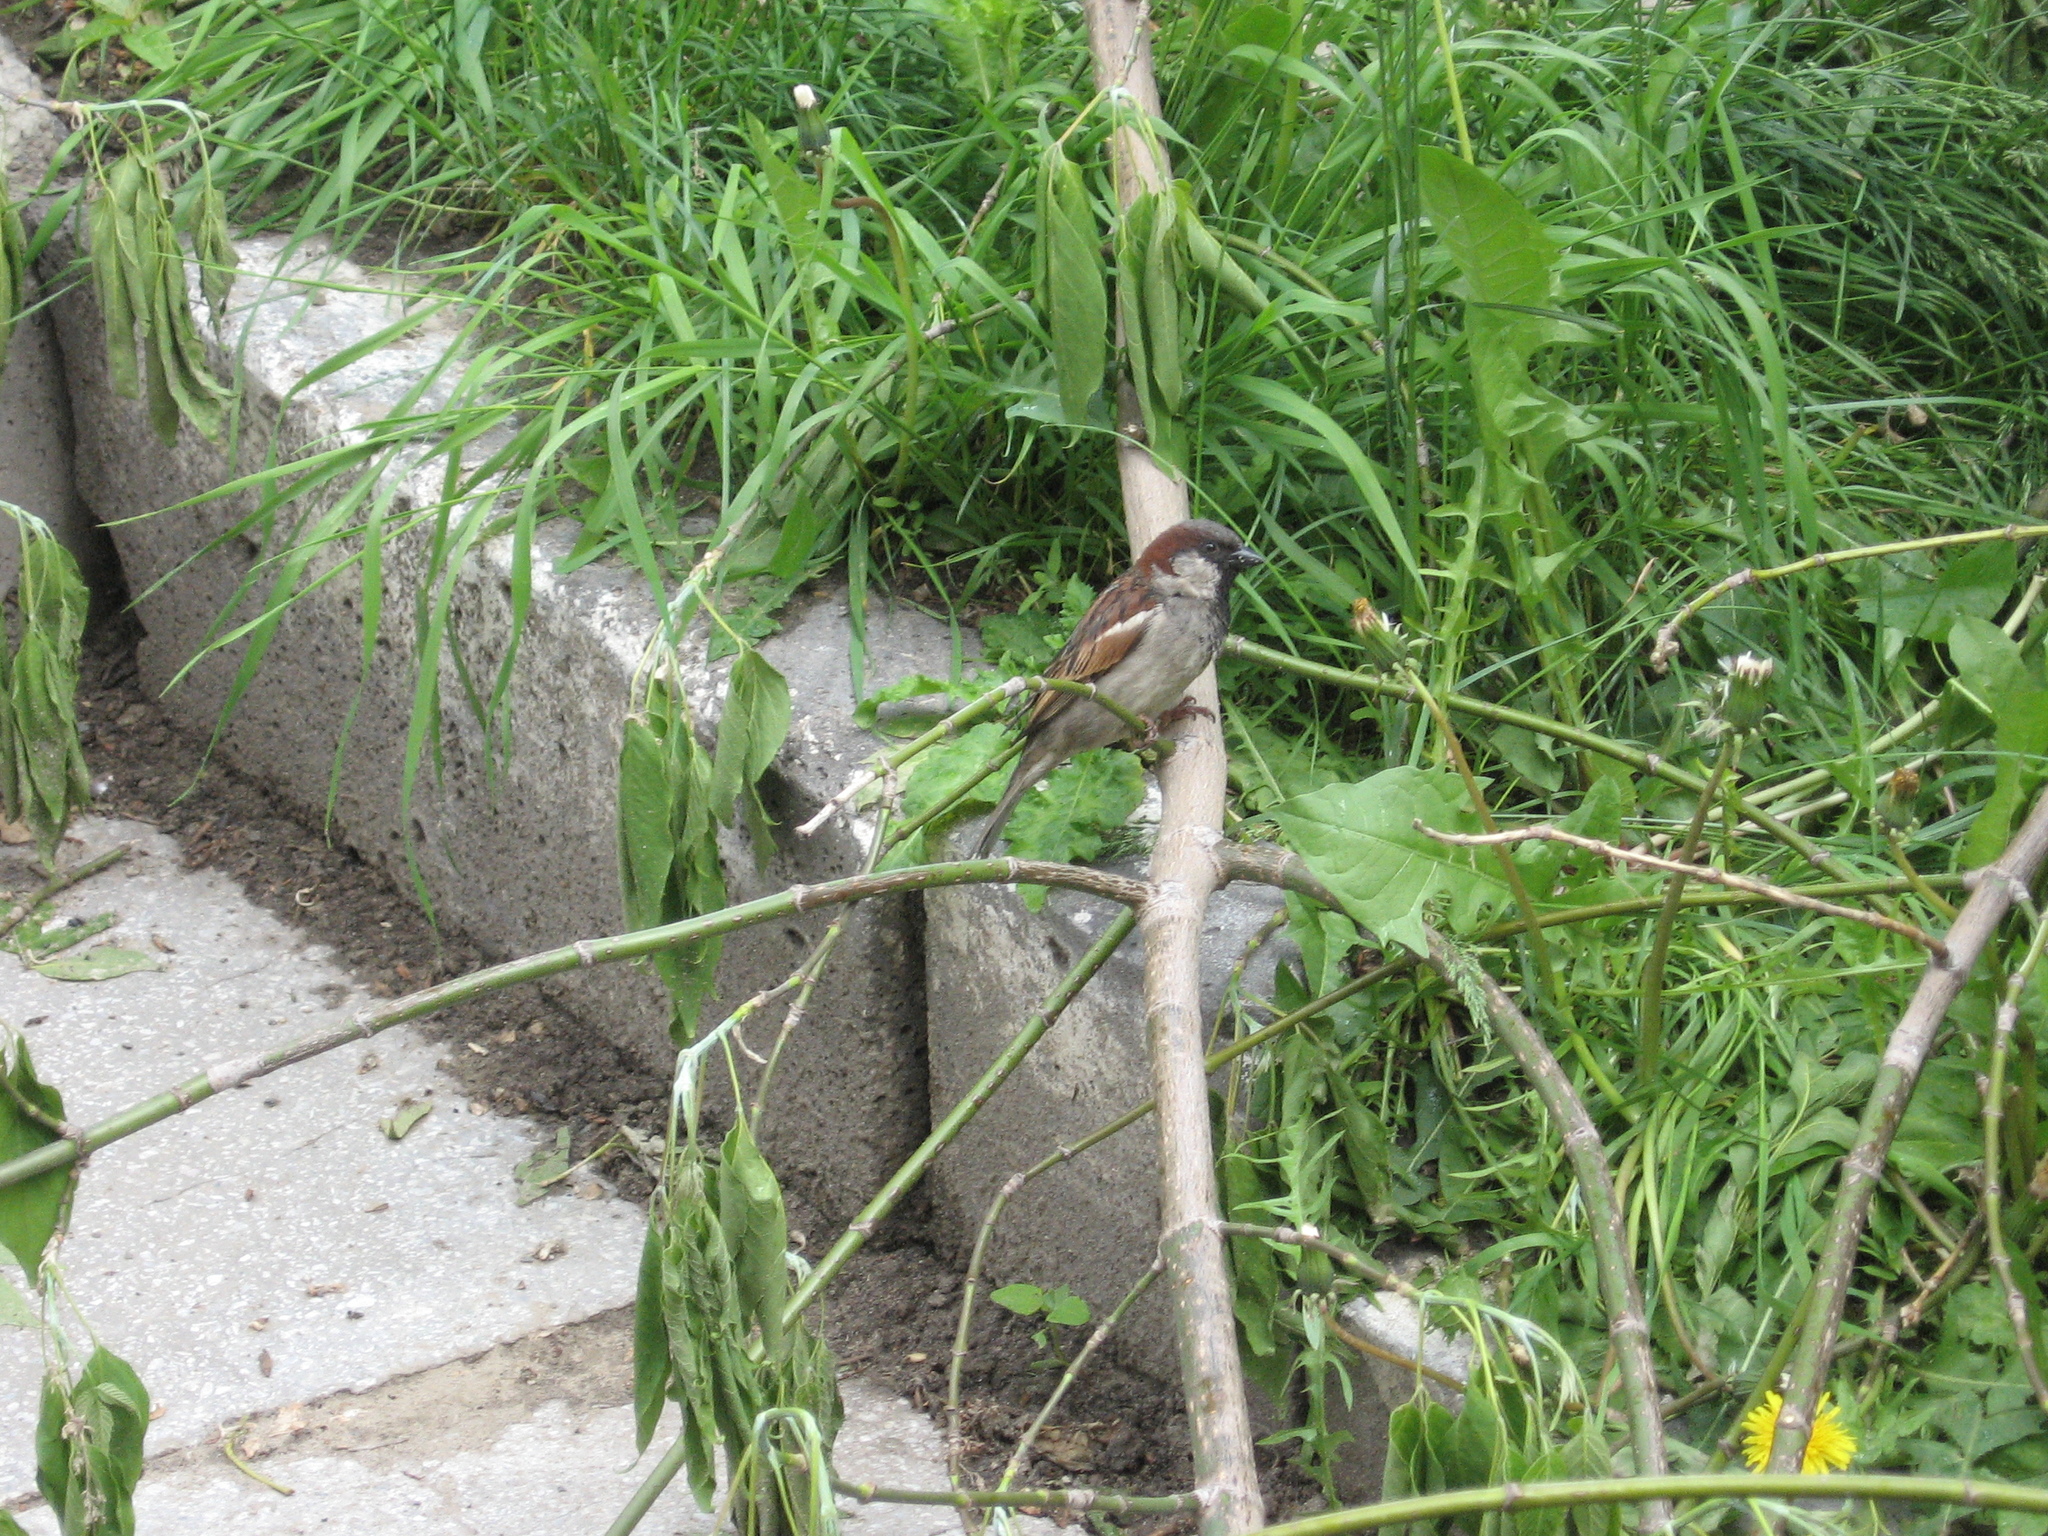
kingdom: Animalia
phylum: Chordata
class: Aves
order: Passeriformes
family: Passeridae
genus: Passer
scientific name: Passer domesticus
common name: House sparrow
